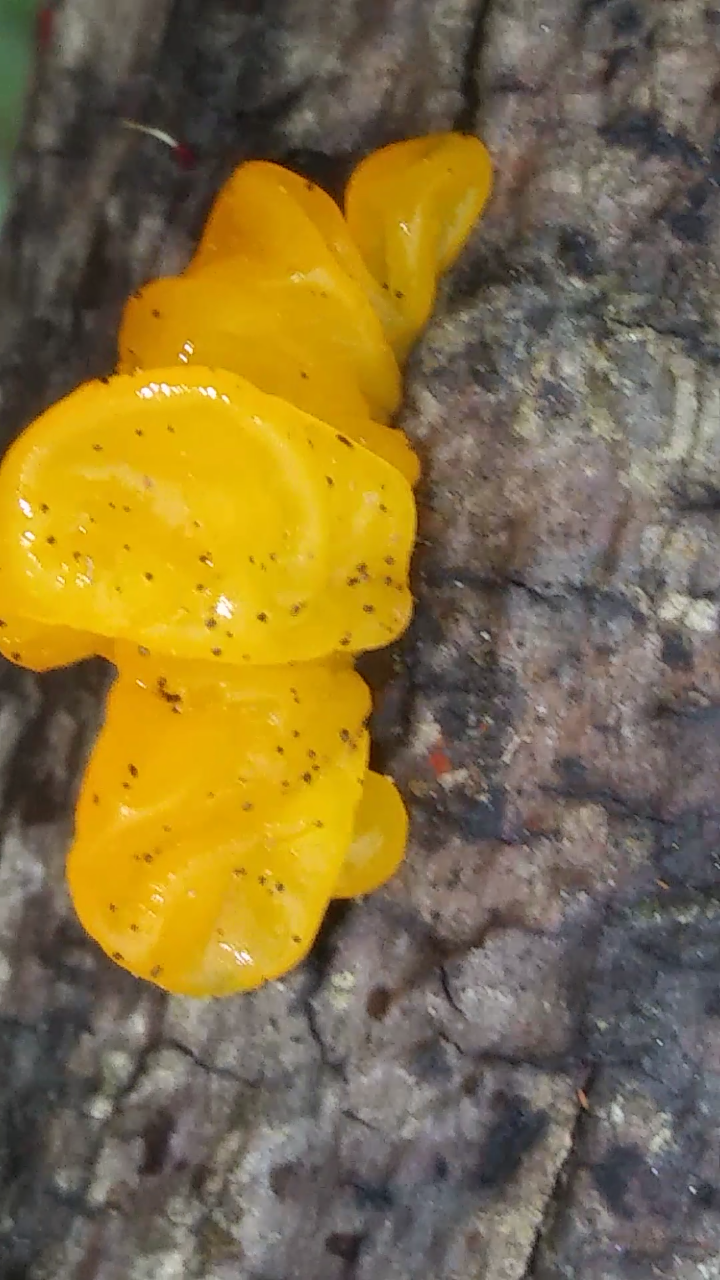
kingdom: Fungi
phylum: Basidiomycota
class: Tremellomycetes
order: Tremellales
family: Tremellaceae
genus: Tremella
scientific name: Tremella mesenterica
